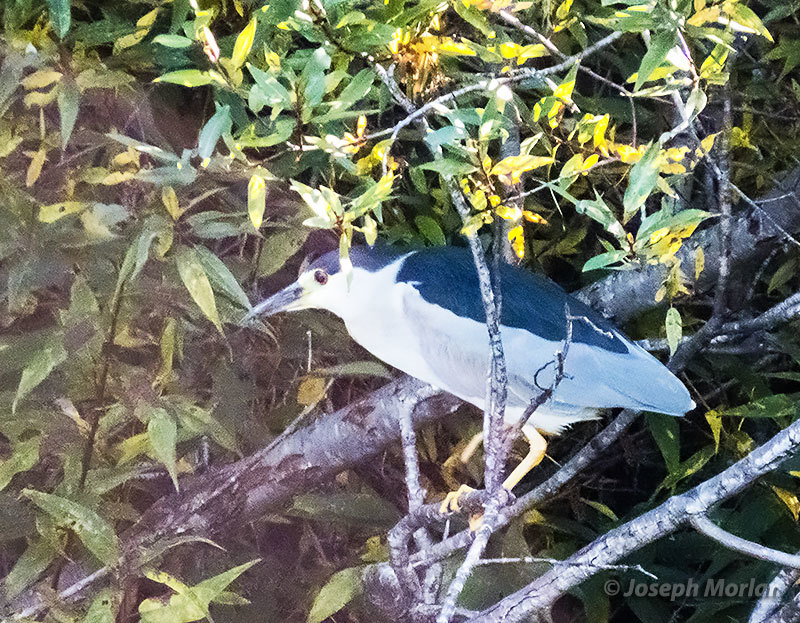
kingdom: Animalia
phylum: Chordata
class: Aves
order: Pelecaniformes
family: Ardeidae
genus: Nycticorax
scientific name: Nycticorax nycticorax
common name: Black-crowned night heron
